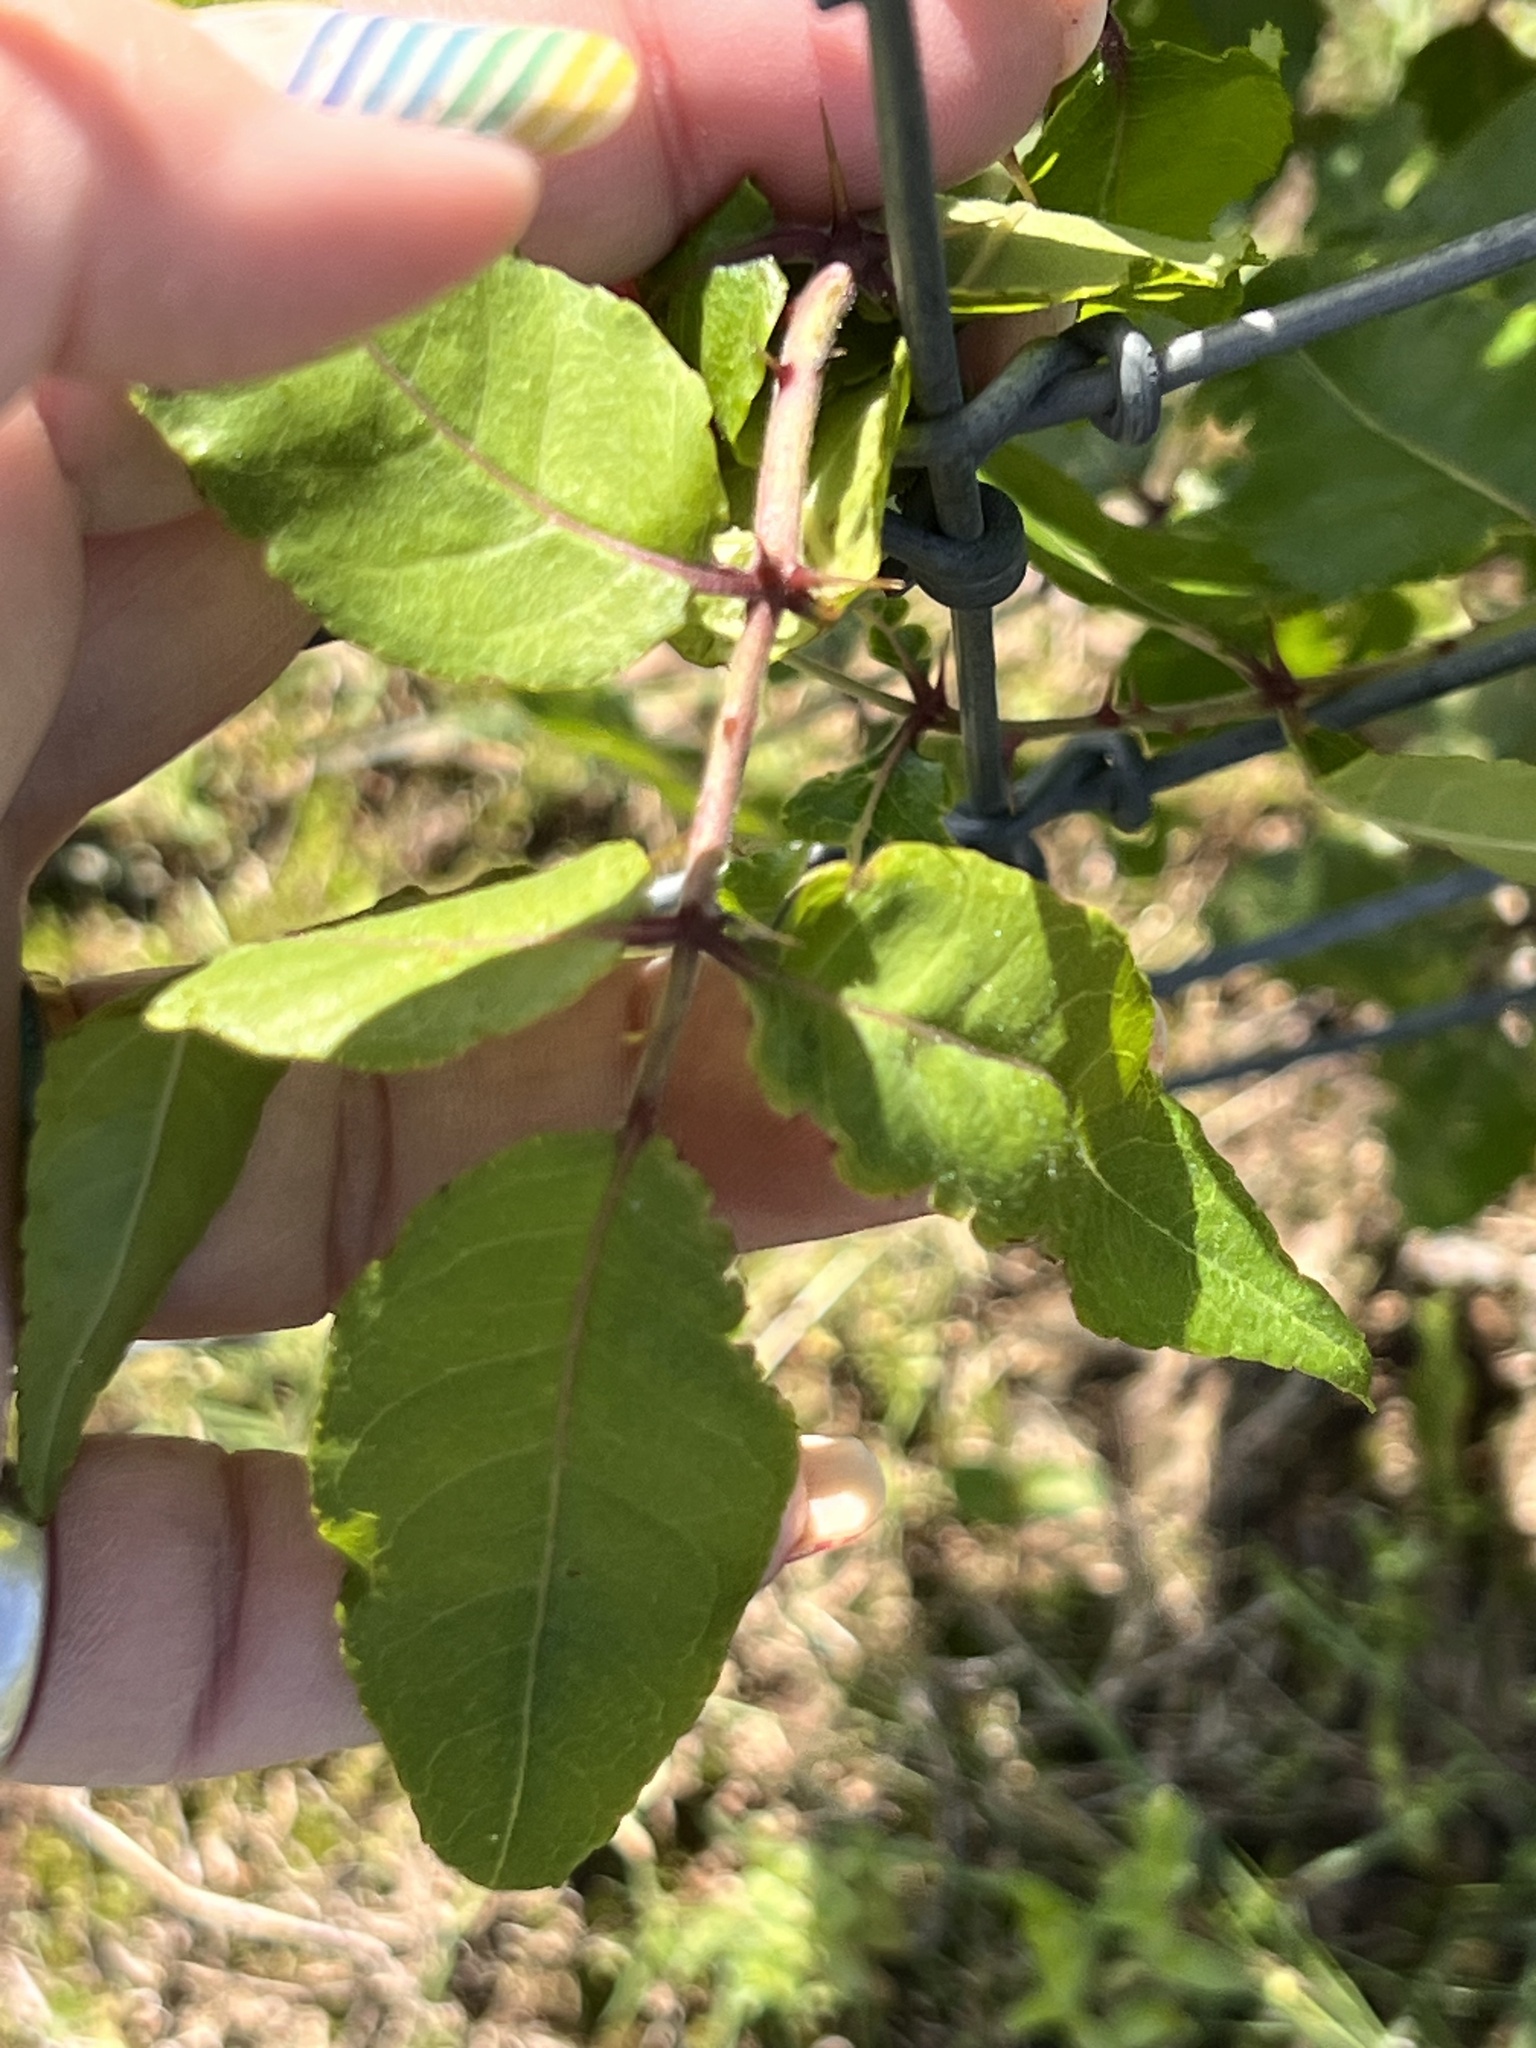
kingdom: Plantae
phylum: Tracheophyta
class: Magnoliopsida
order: Sapindales
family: Rutaceae
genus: Zanthoxylum
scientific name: Zanthoxylum clava-herculis
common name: Hercules'-club
